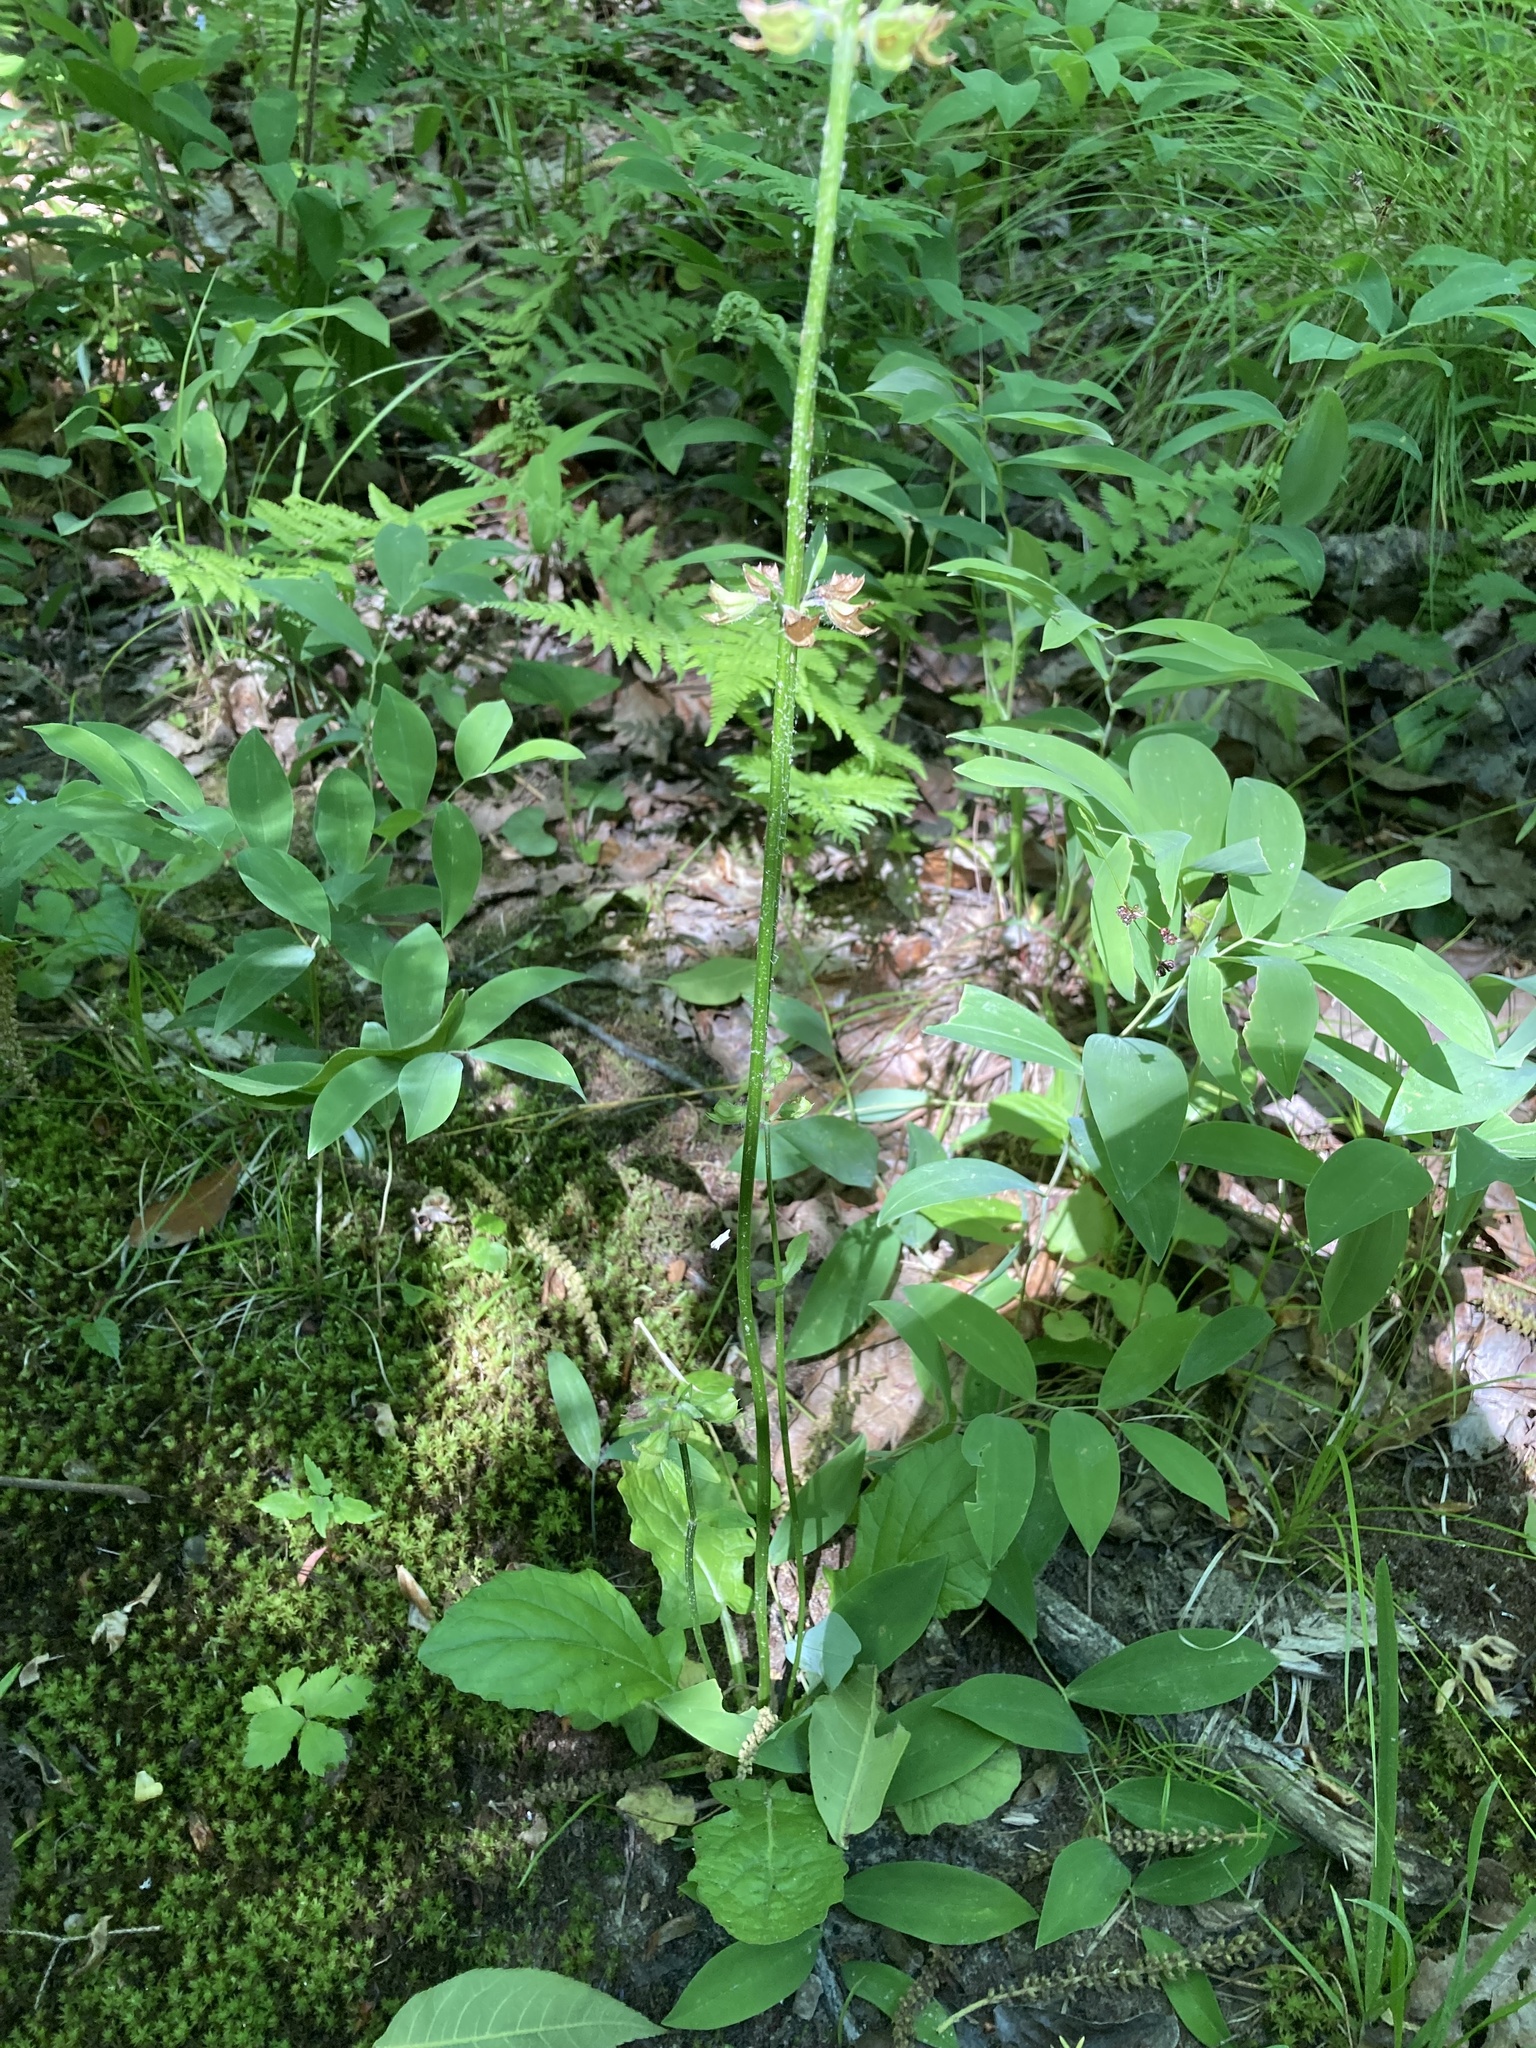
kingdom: Plantae
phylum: Tracheophyta
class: Magnoliopsida
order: Lamiales
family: Lamiaceae
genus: Salvia
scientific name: Salvia lyrata
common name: Cancerweed
